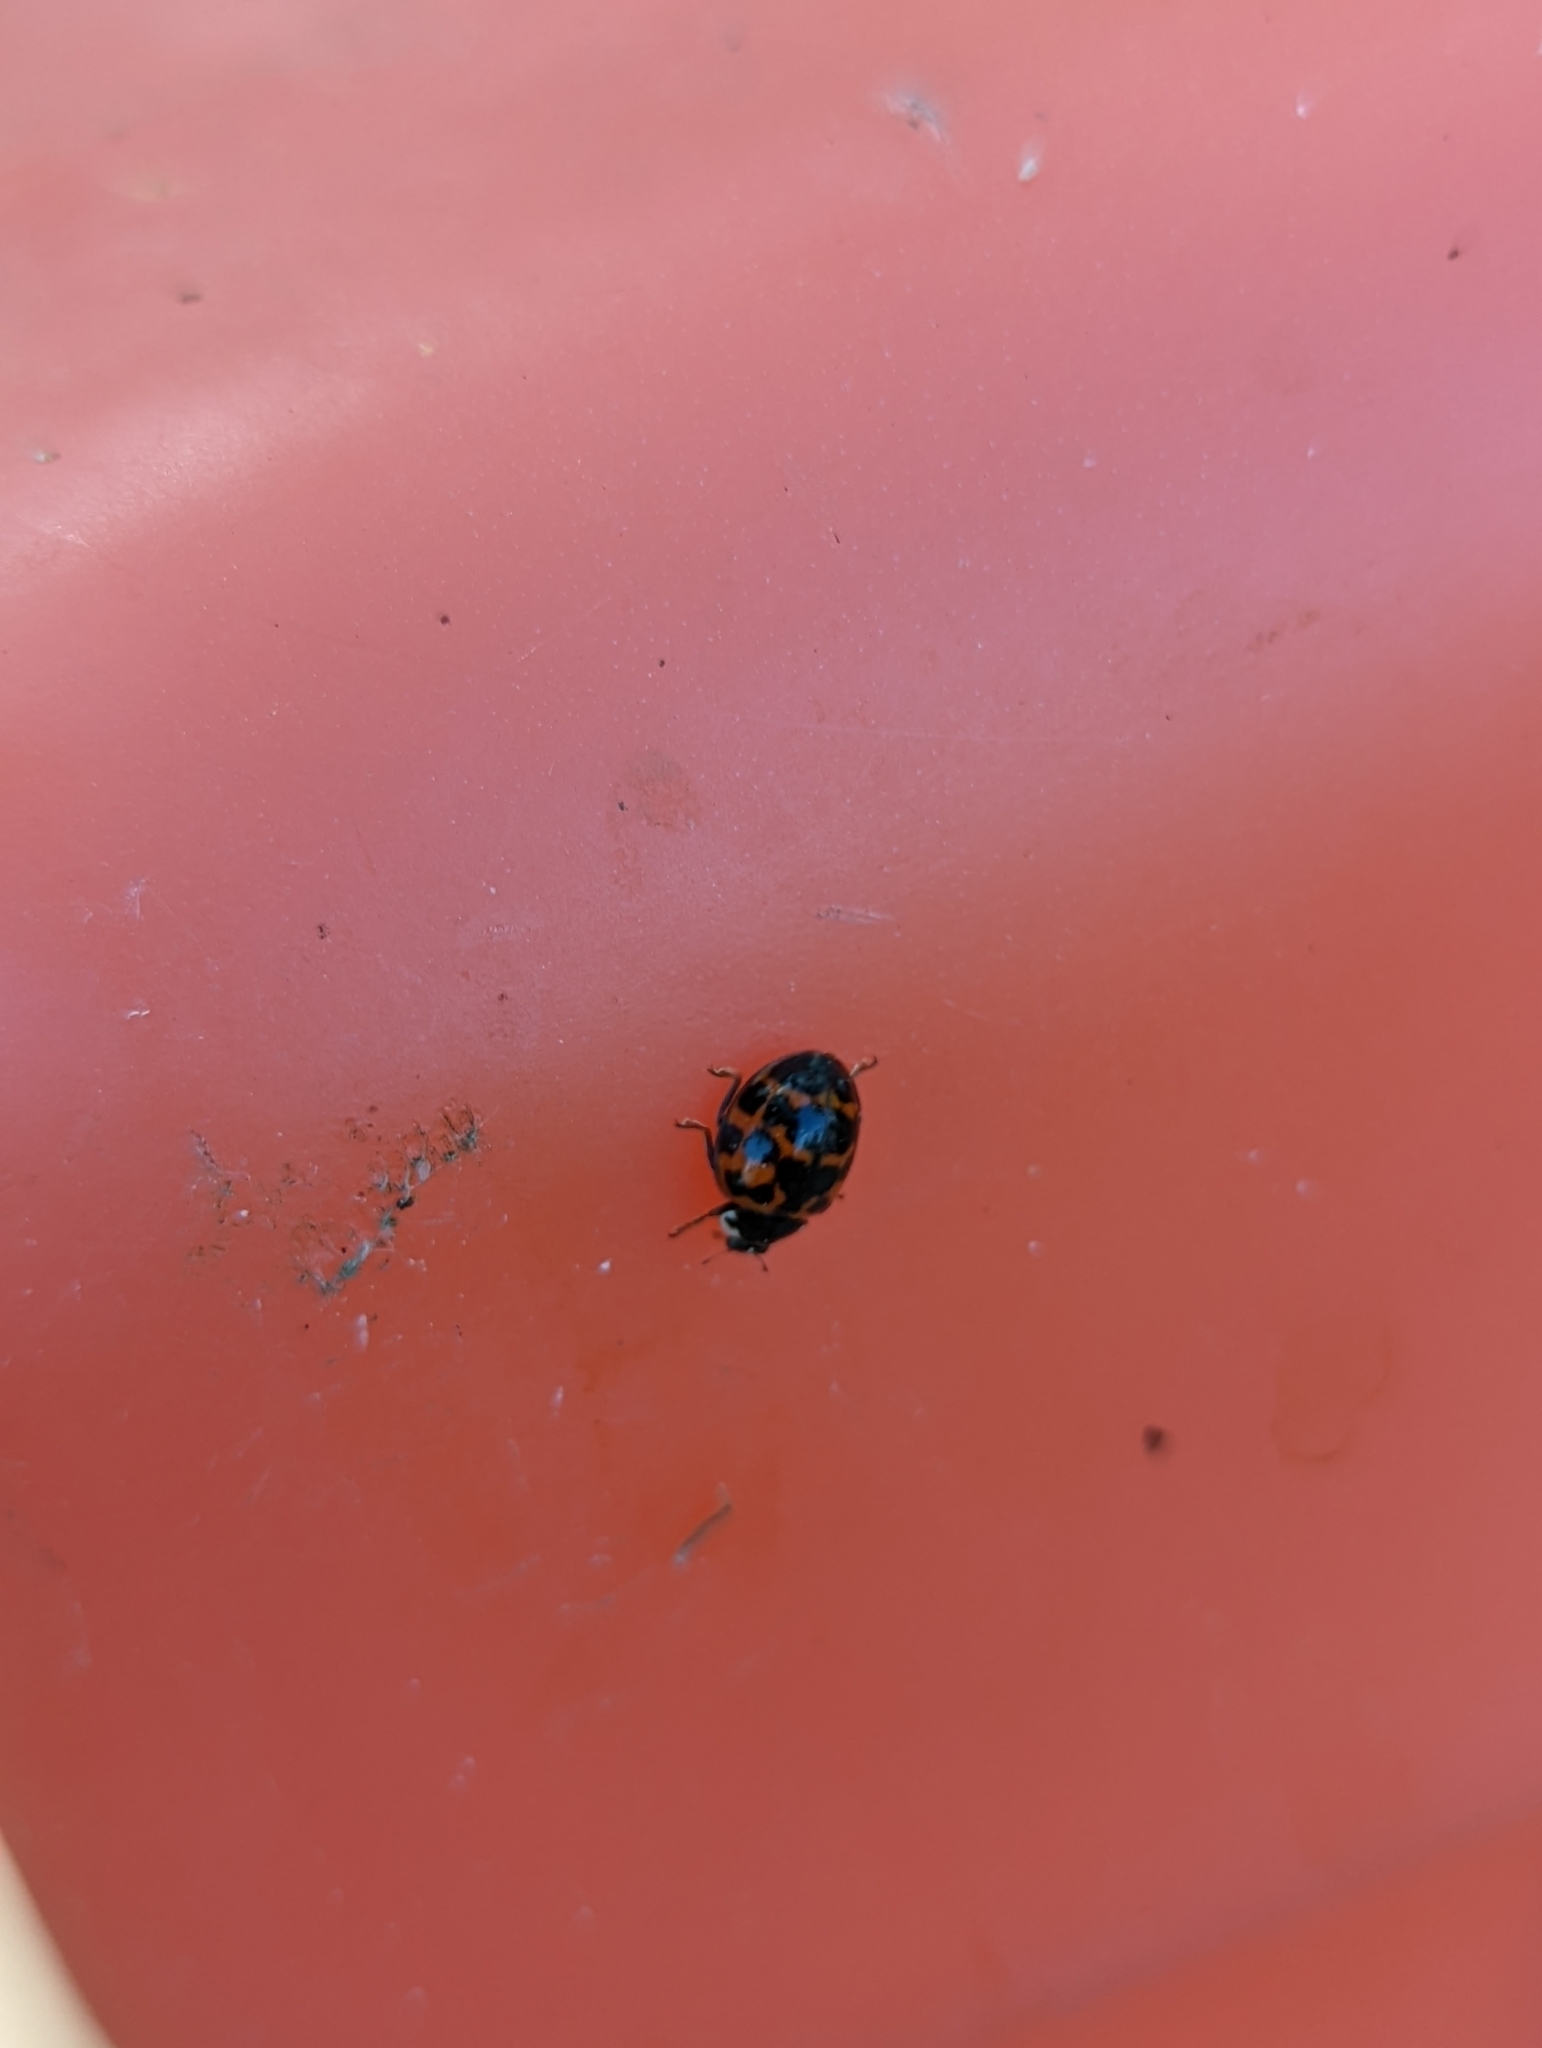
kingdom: Animalia
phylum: Arthropoda
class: Insecta
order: Coleoptera
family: Coccinellidae
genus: Harmonia
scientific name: Harmonia axyridis
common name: Harlequin ladybird
